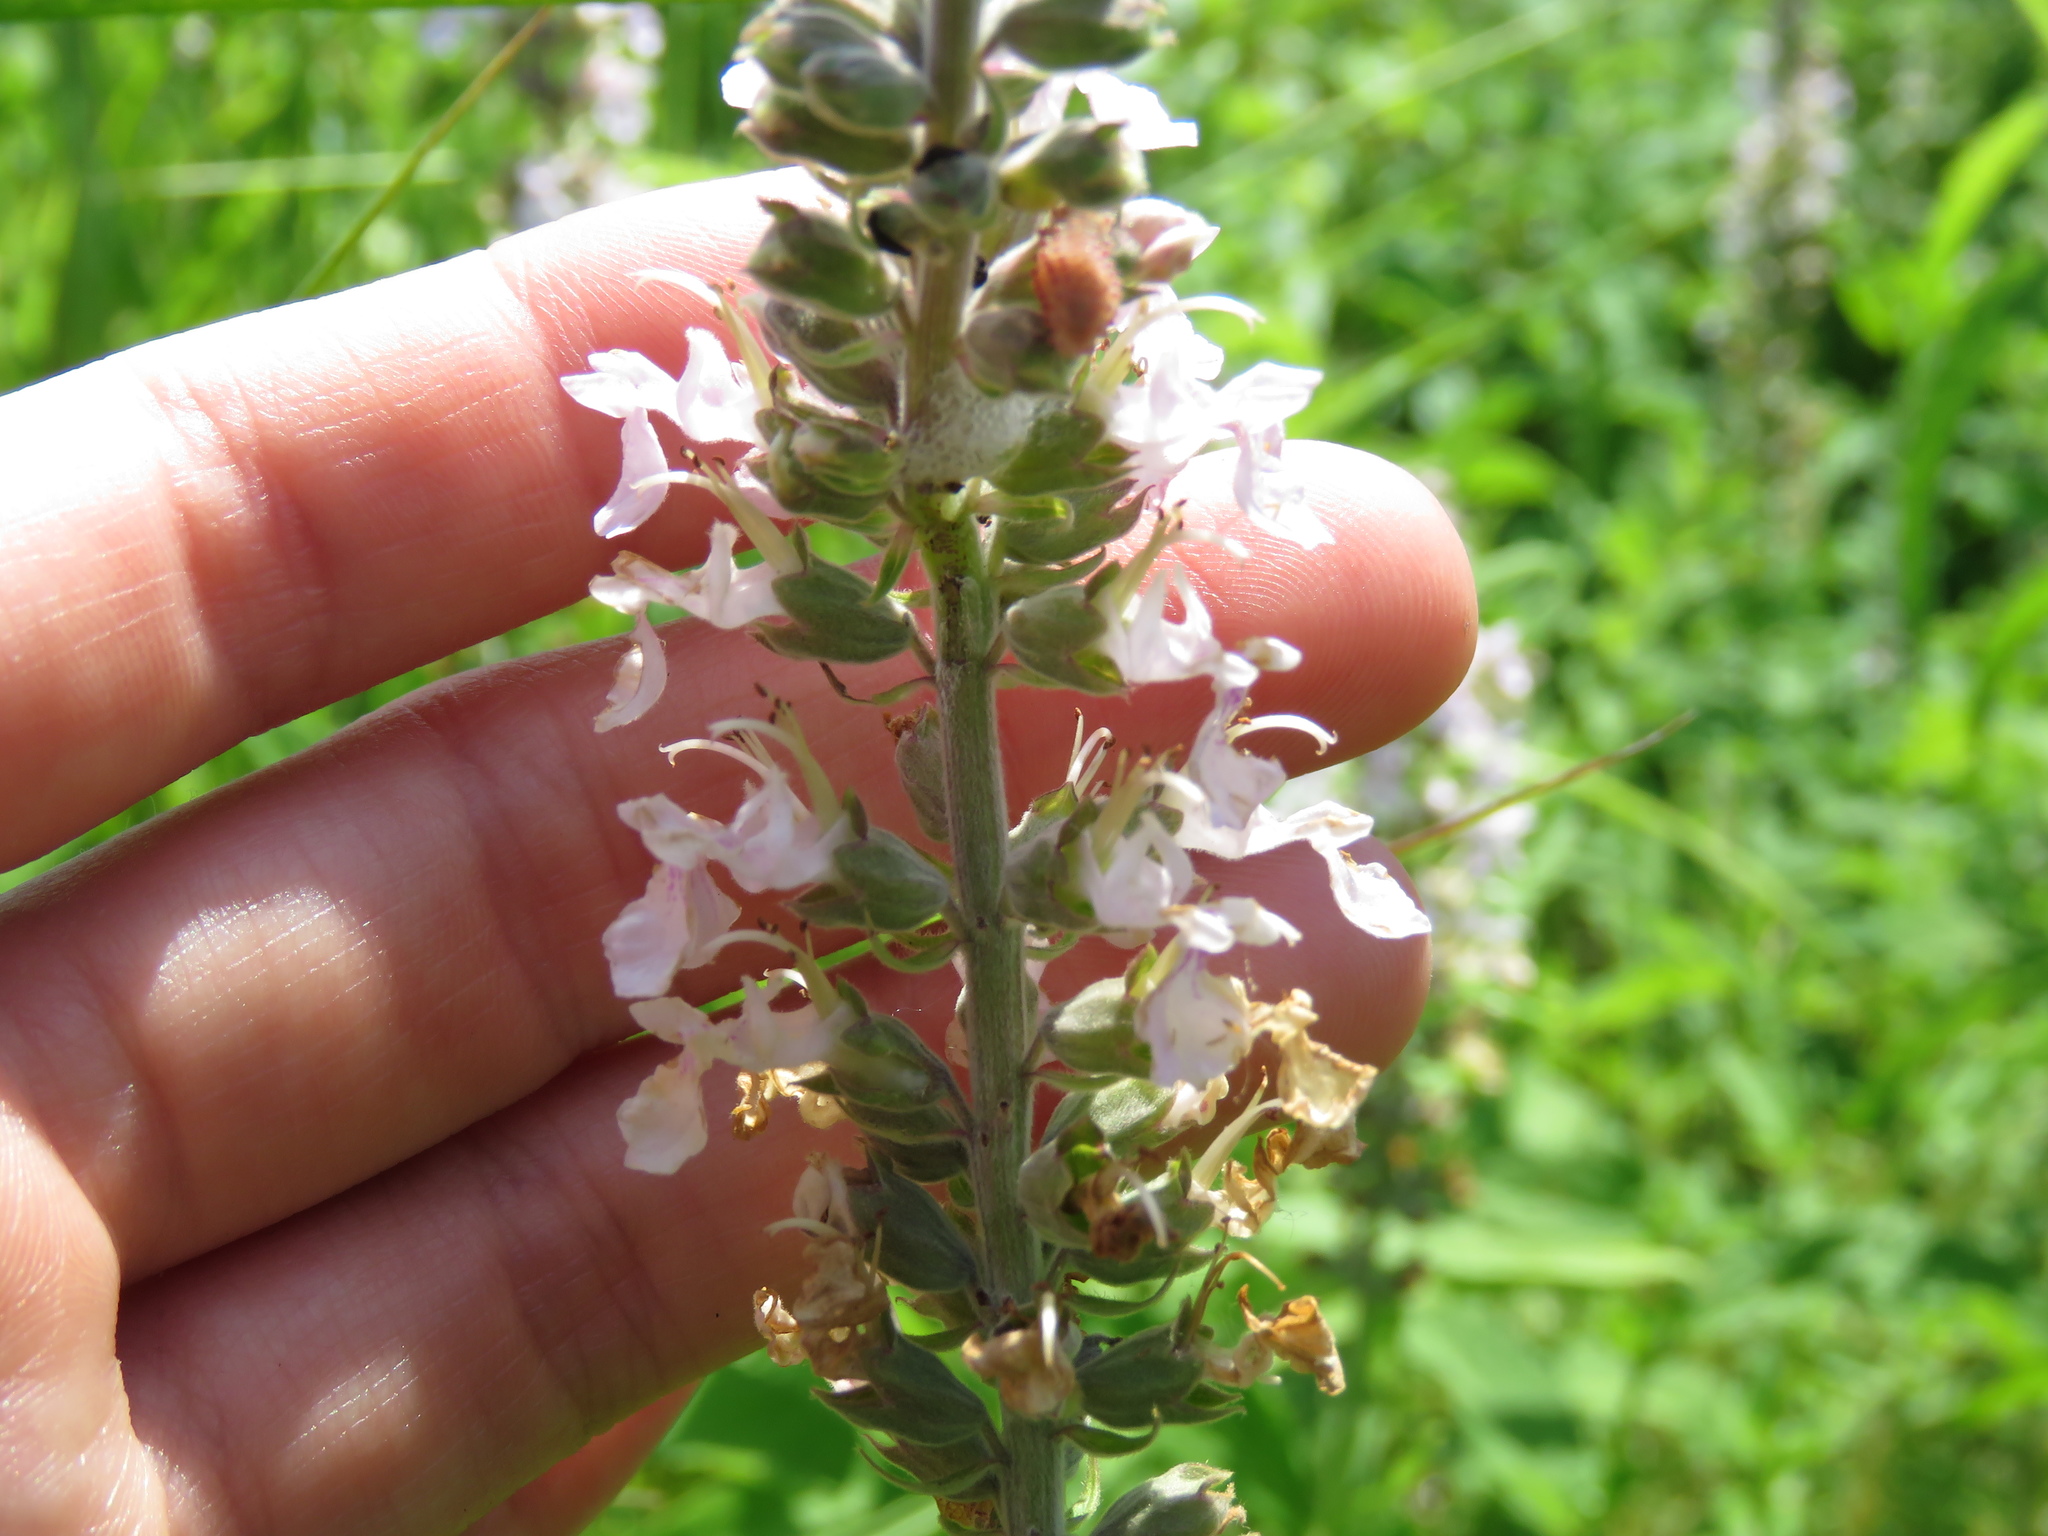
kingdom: Plantae
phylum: Tracheophyta
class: Magnoliopsida
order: Lamiales
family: Lamiaceae
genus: Teucrium
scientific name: Teucrium canadense
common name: American germander
